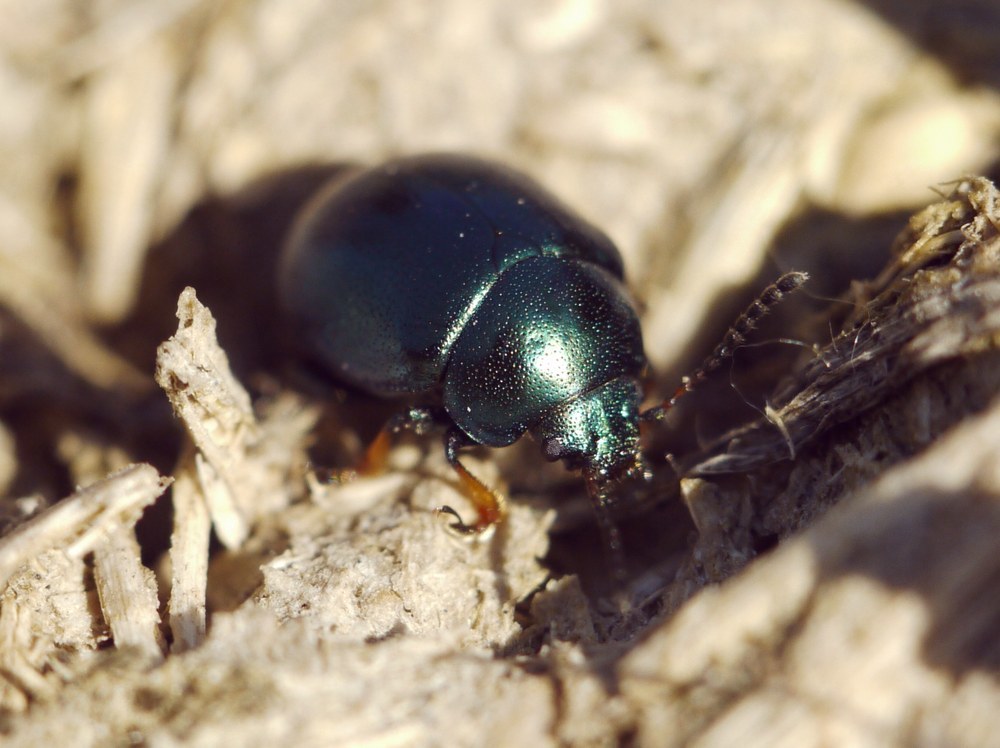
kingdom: Animalia
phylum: Arthropoda
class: Insecta
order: Coleoptera
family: Chrysomelidae
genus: Colaphellus
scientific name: Colaphellus sophiae
